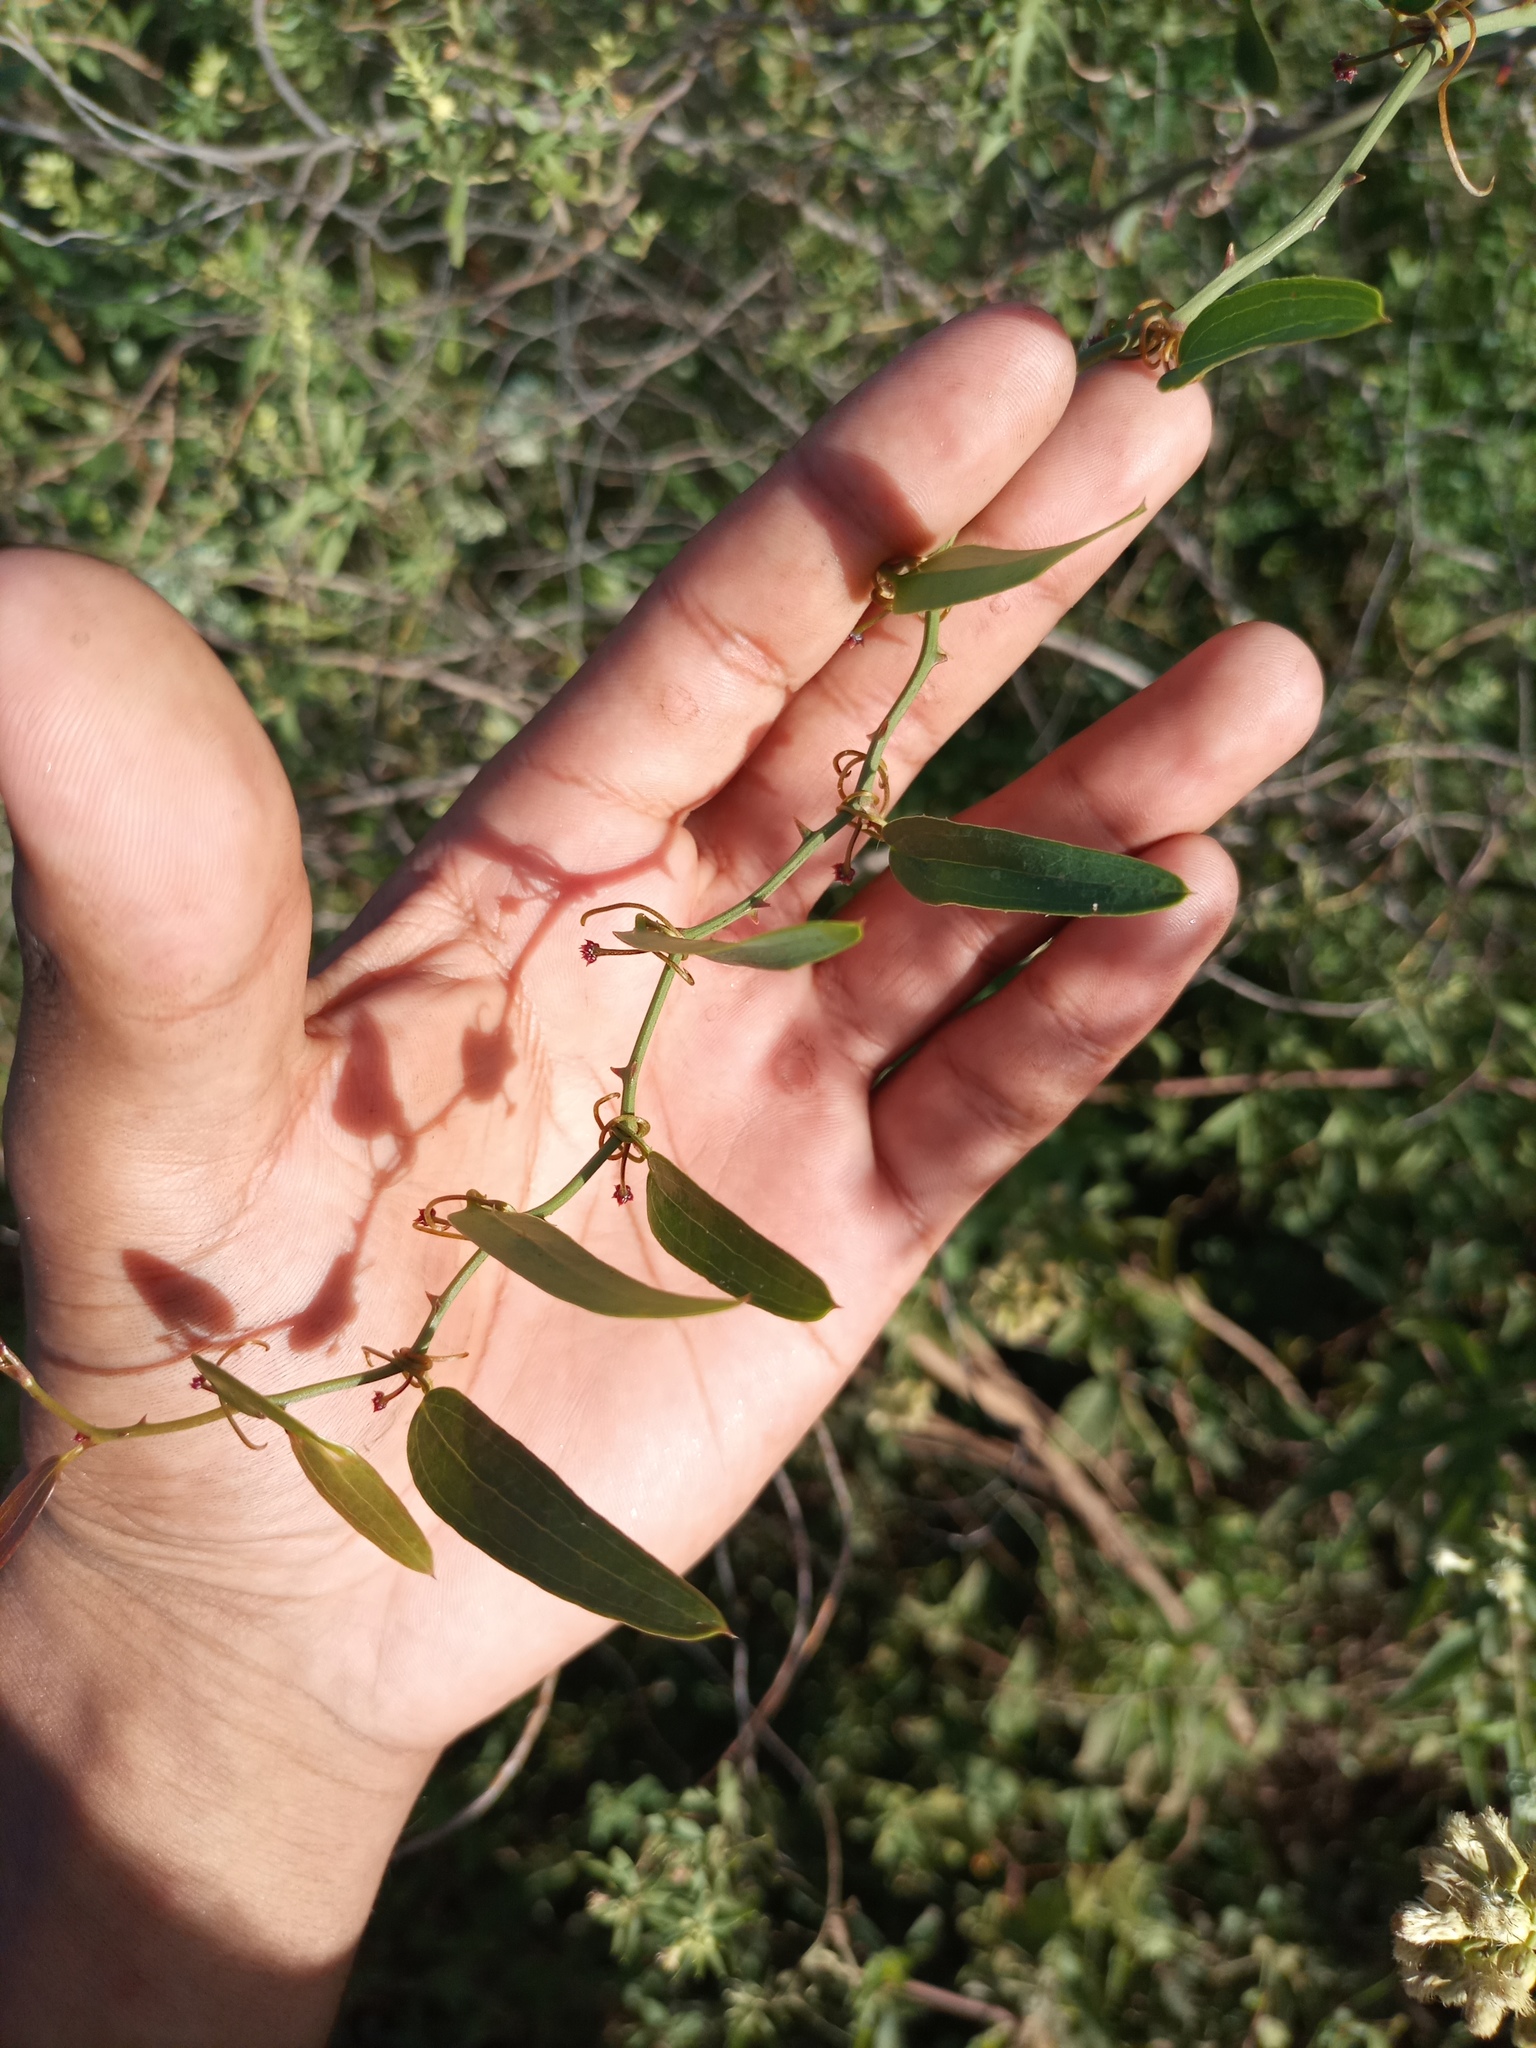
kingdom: Plantae
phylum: Tracheophyta
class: Liliopsida
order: Liliales
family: Smilacaceae
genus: Smilax
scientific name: Smilax campestris
